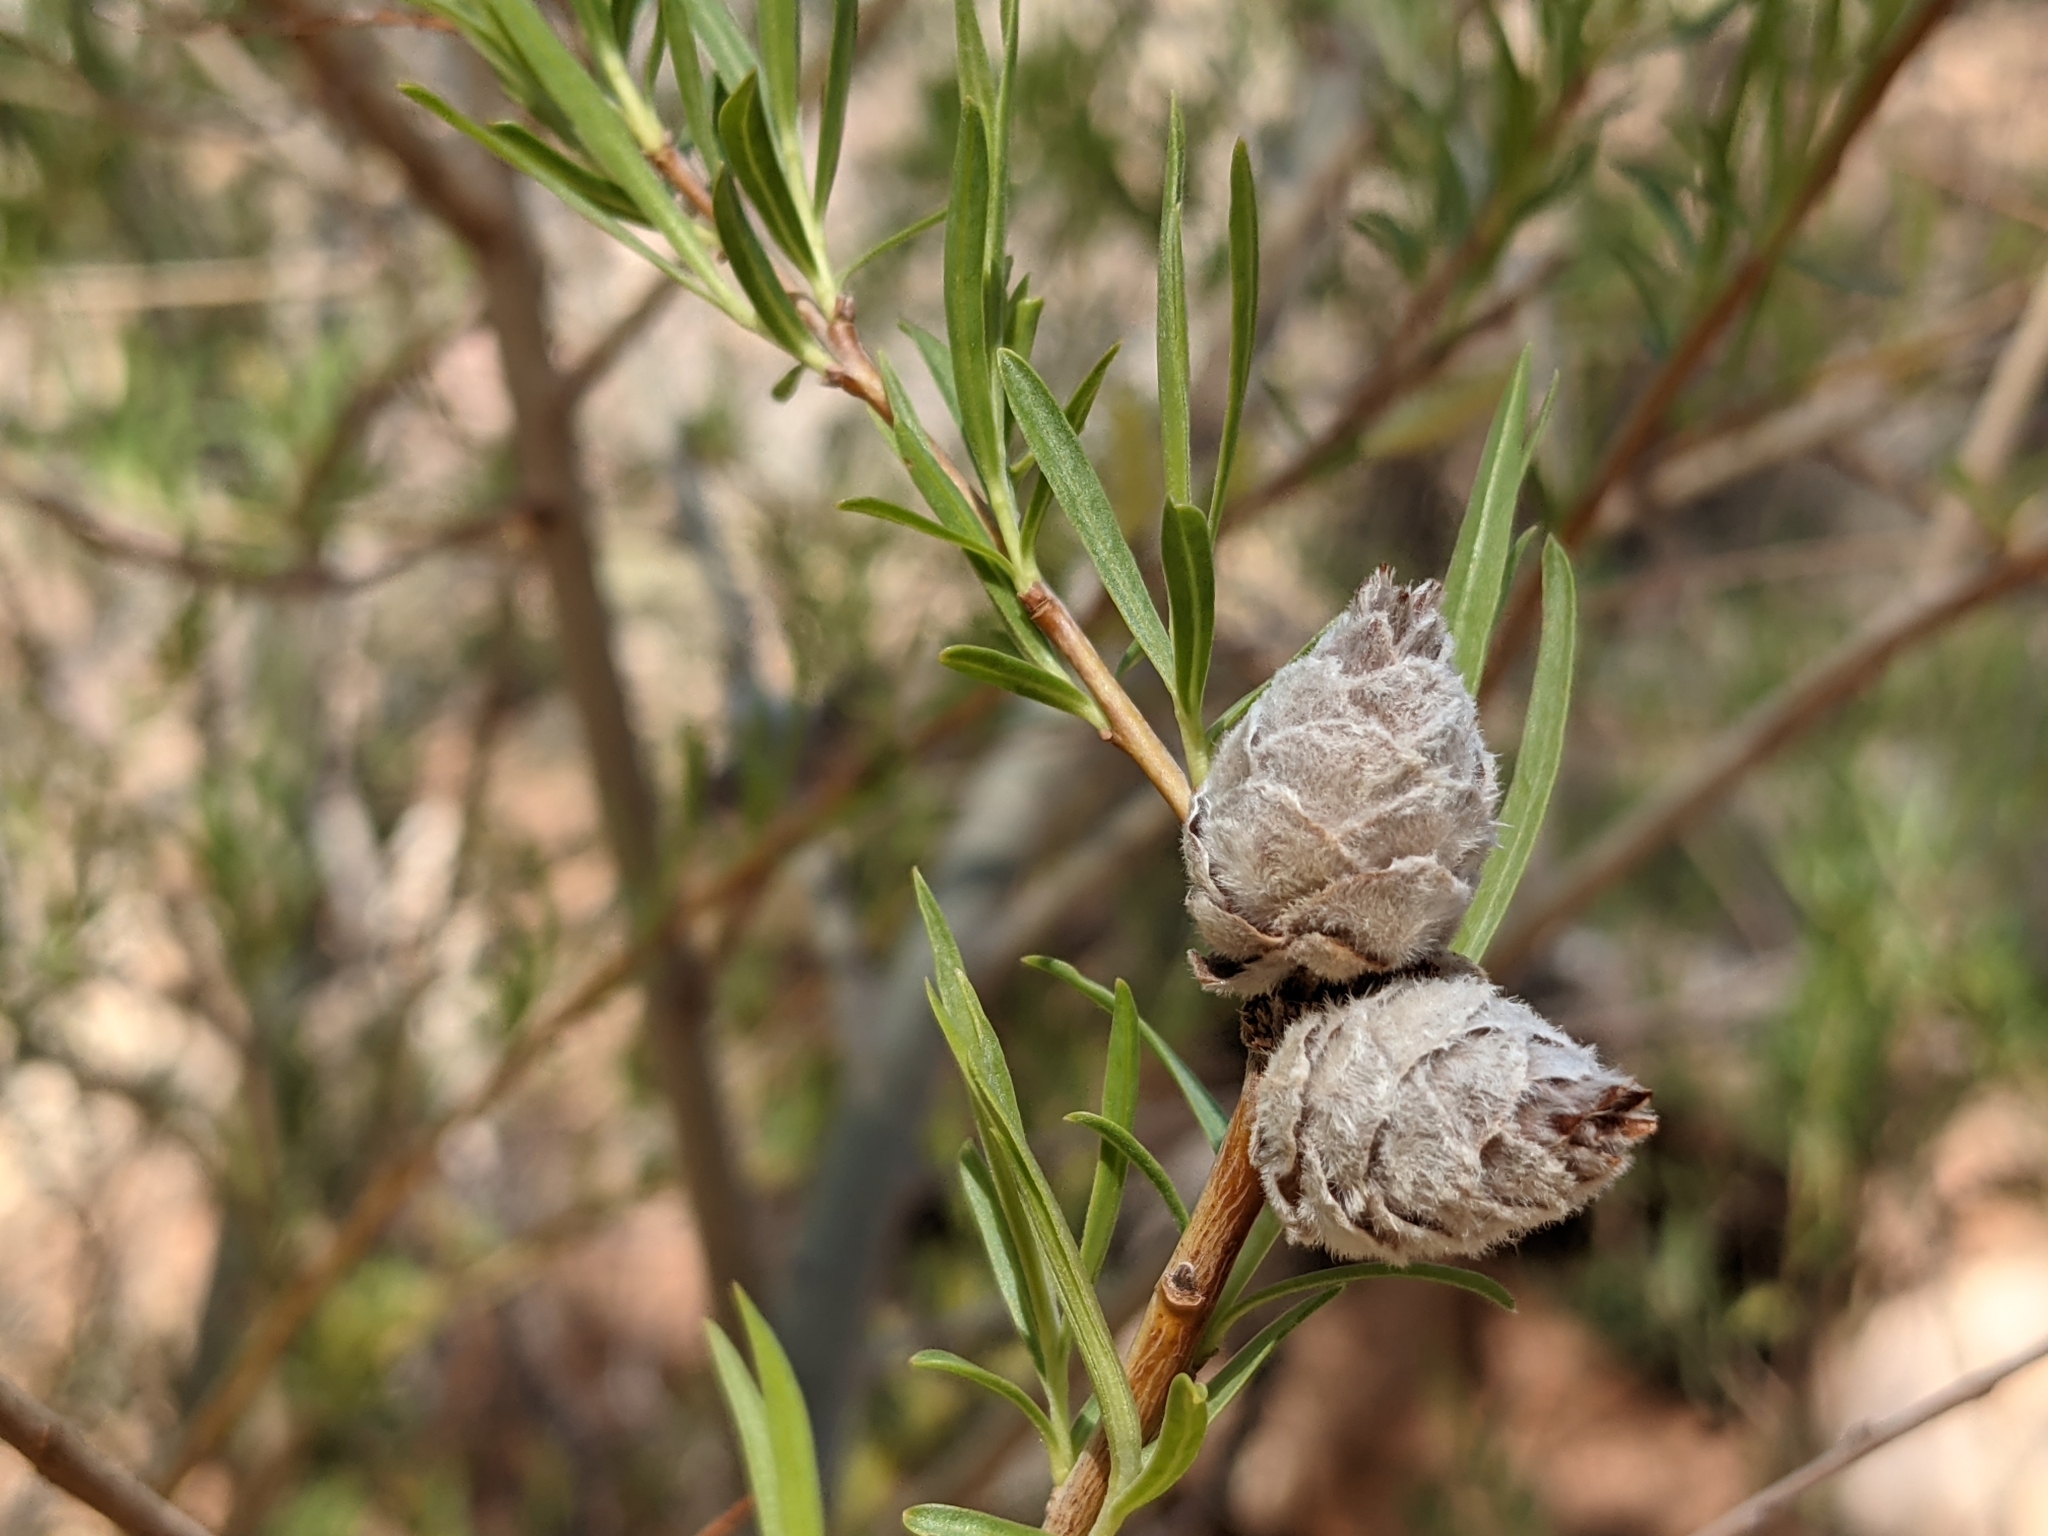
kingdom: Animalia
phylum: Arthropoda
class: Insecta
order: Diptera
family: Cecidomyiidae
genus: Rabdophaga
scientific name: Rabdophaga strobiloides
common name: Willow pinecone gall midge
